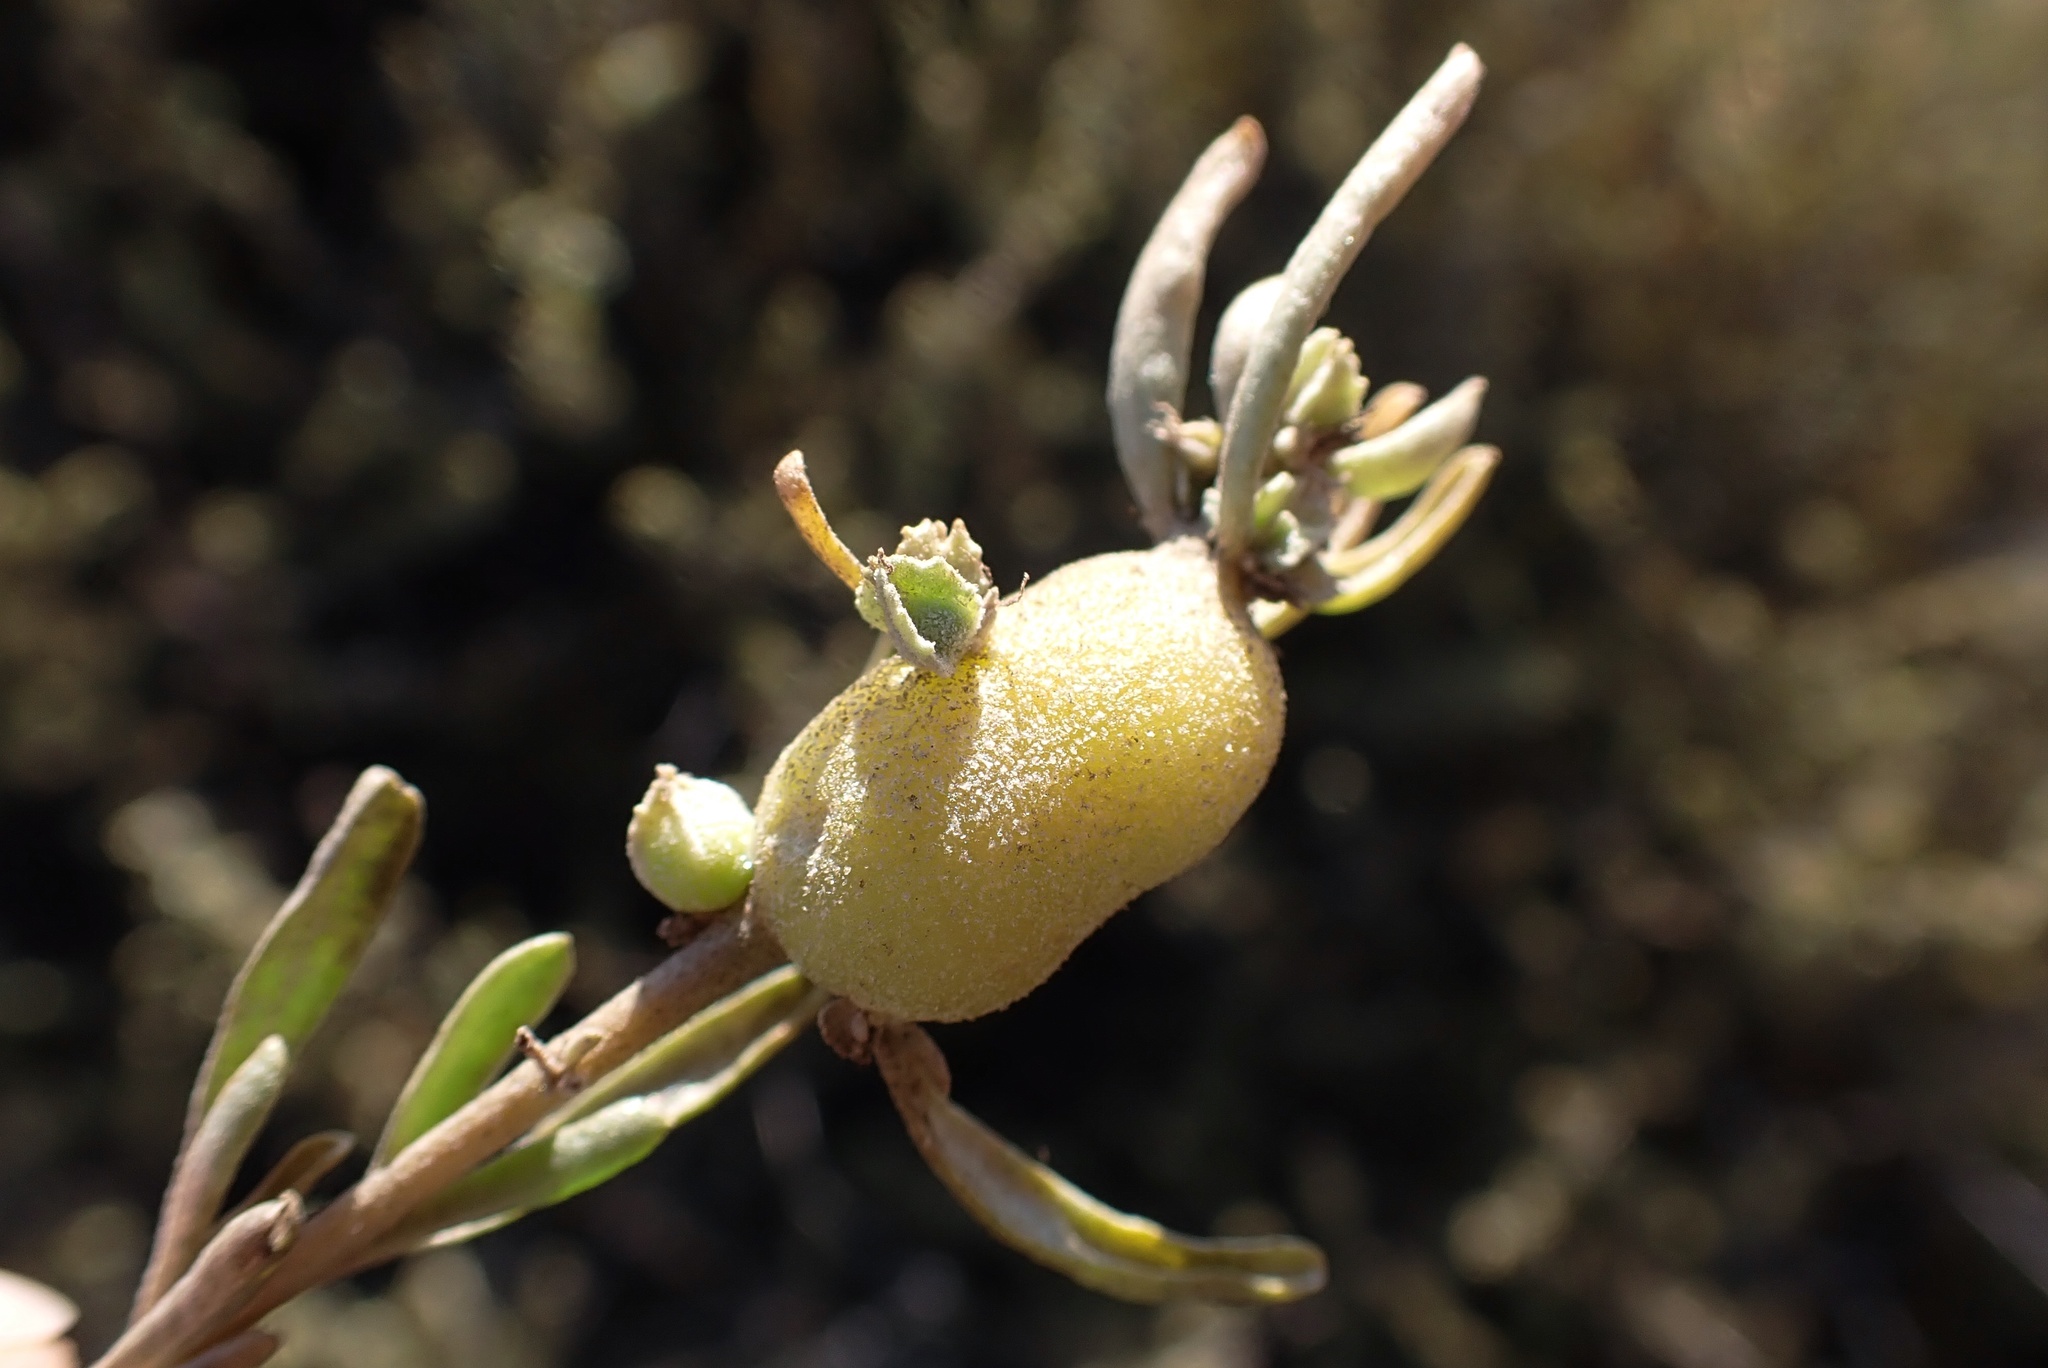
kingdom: Animalia
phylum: Arthropoda
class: Insecta
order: Diptera
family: Cecidomyiidae
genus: Asphondylia
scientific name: Asphondylia atriplicis
